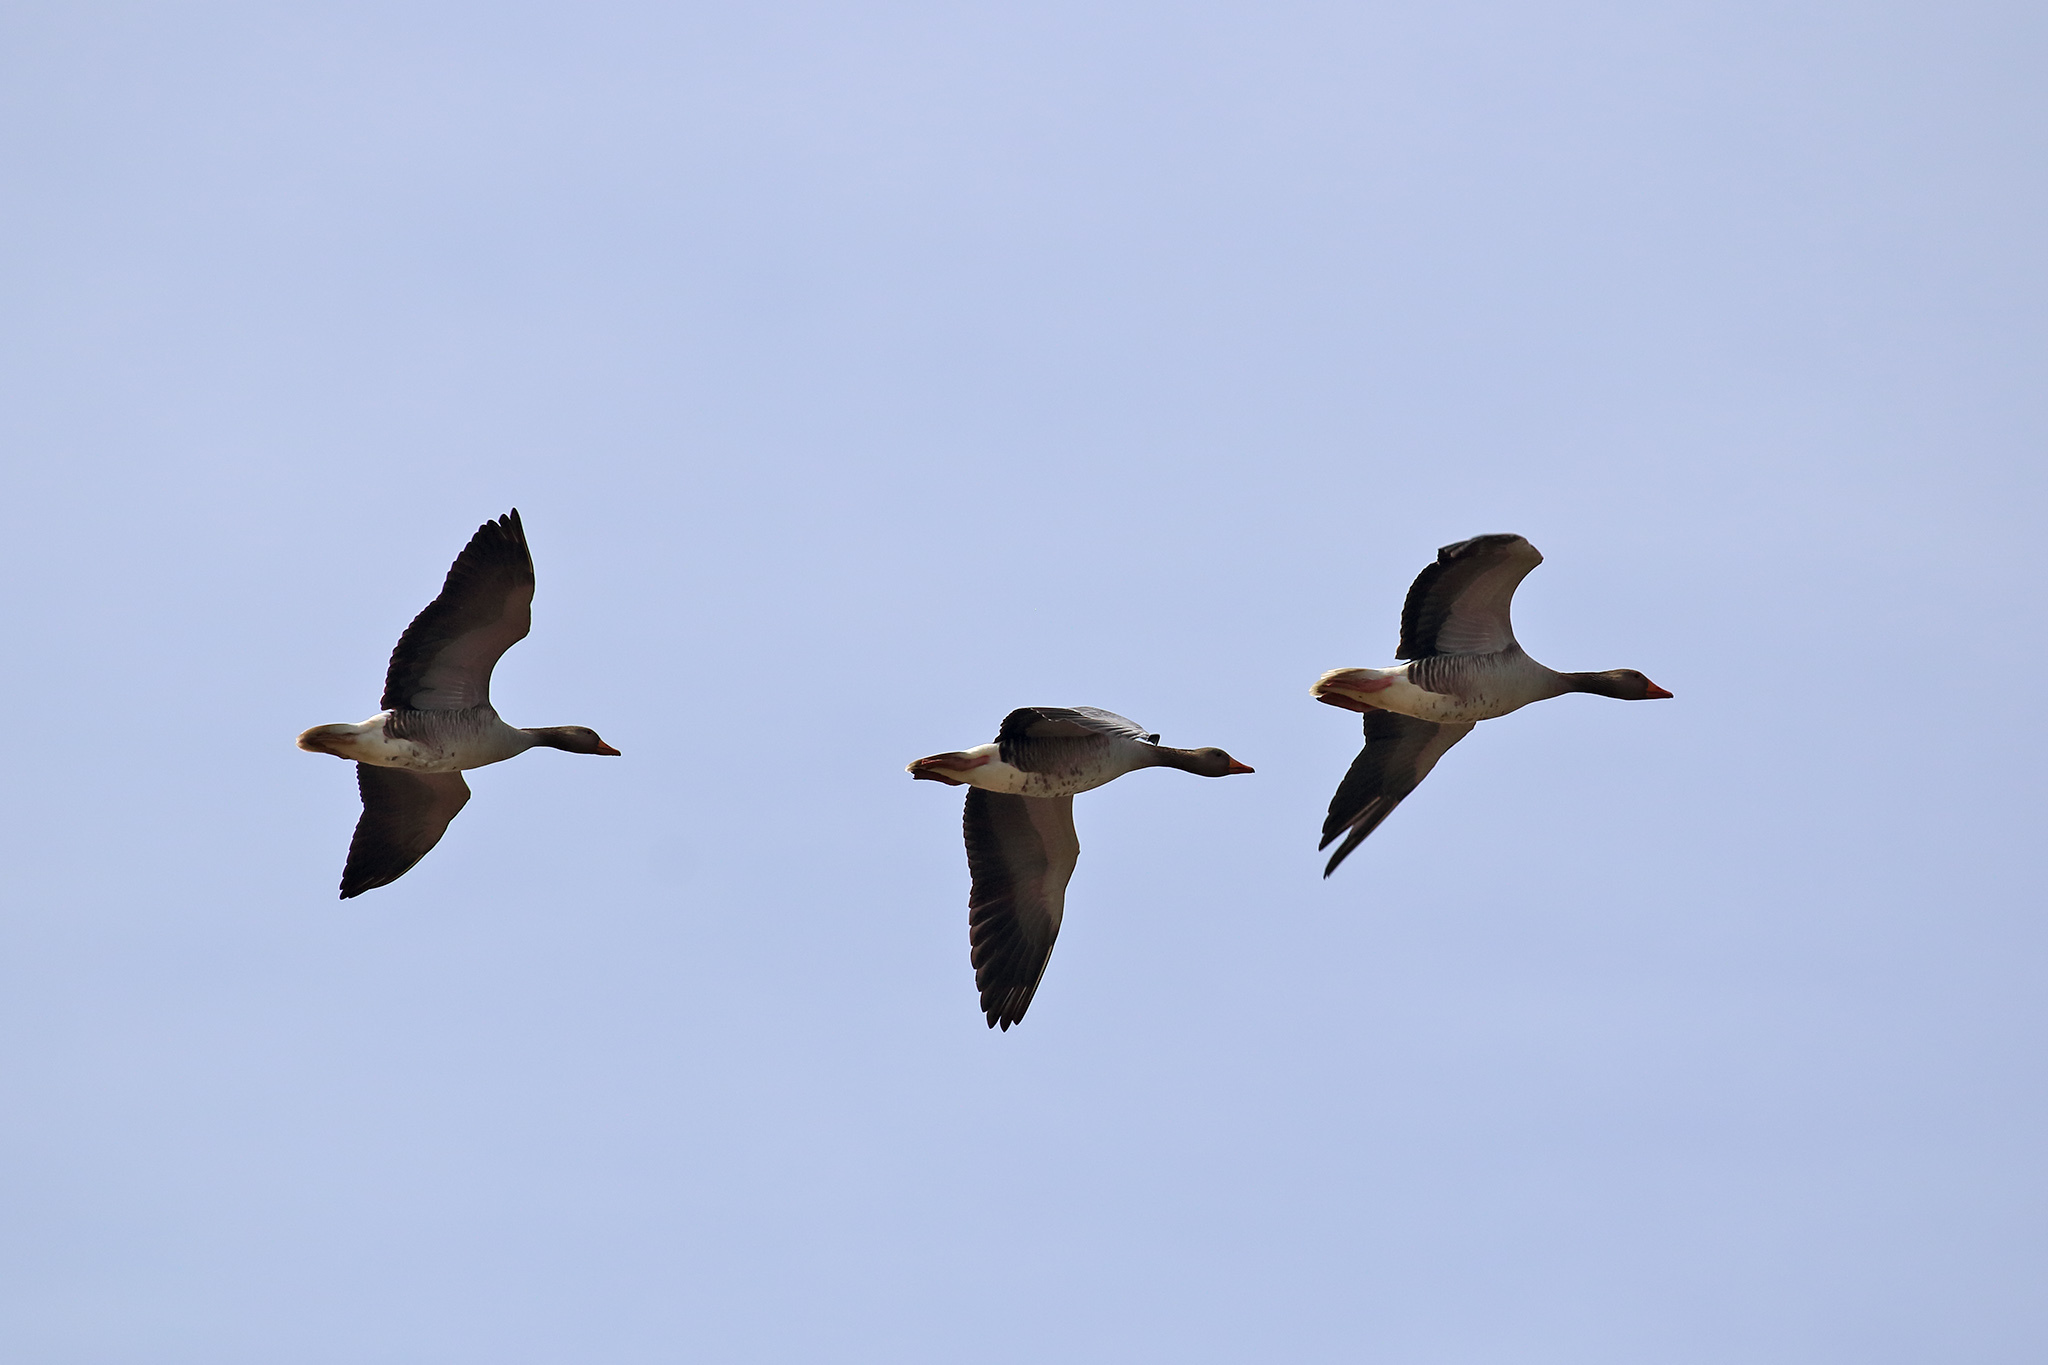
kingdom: Animalia
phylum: Chordata
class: Aves
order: Anseriformes
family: Anatidae
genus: Anser
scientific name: Anser anser
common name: Greylag goose
